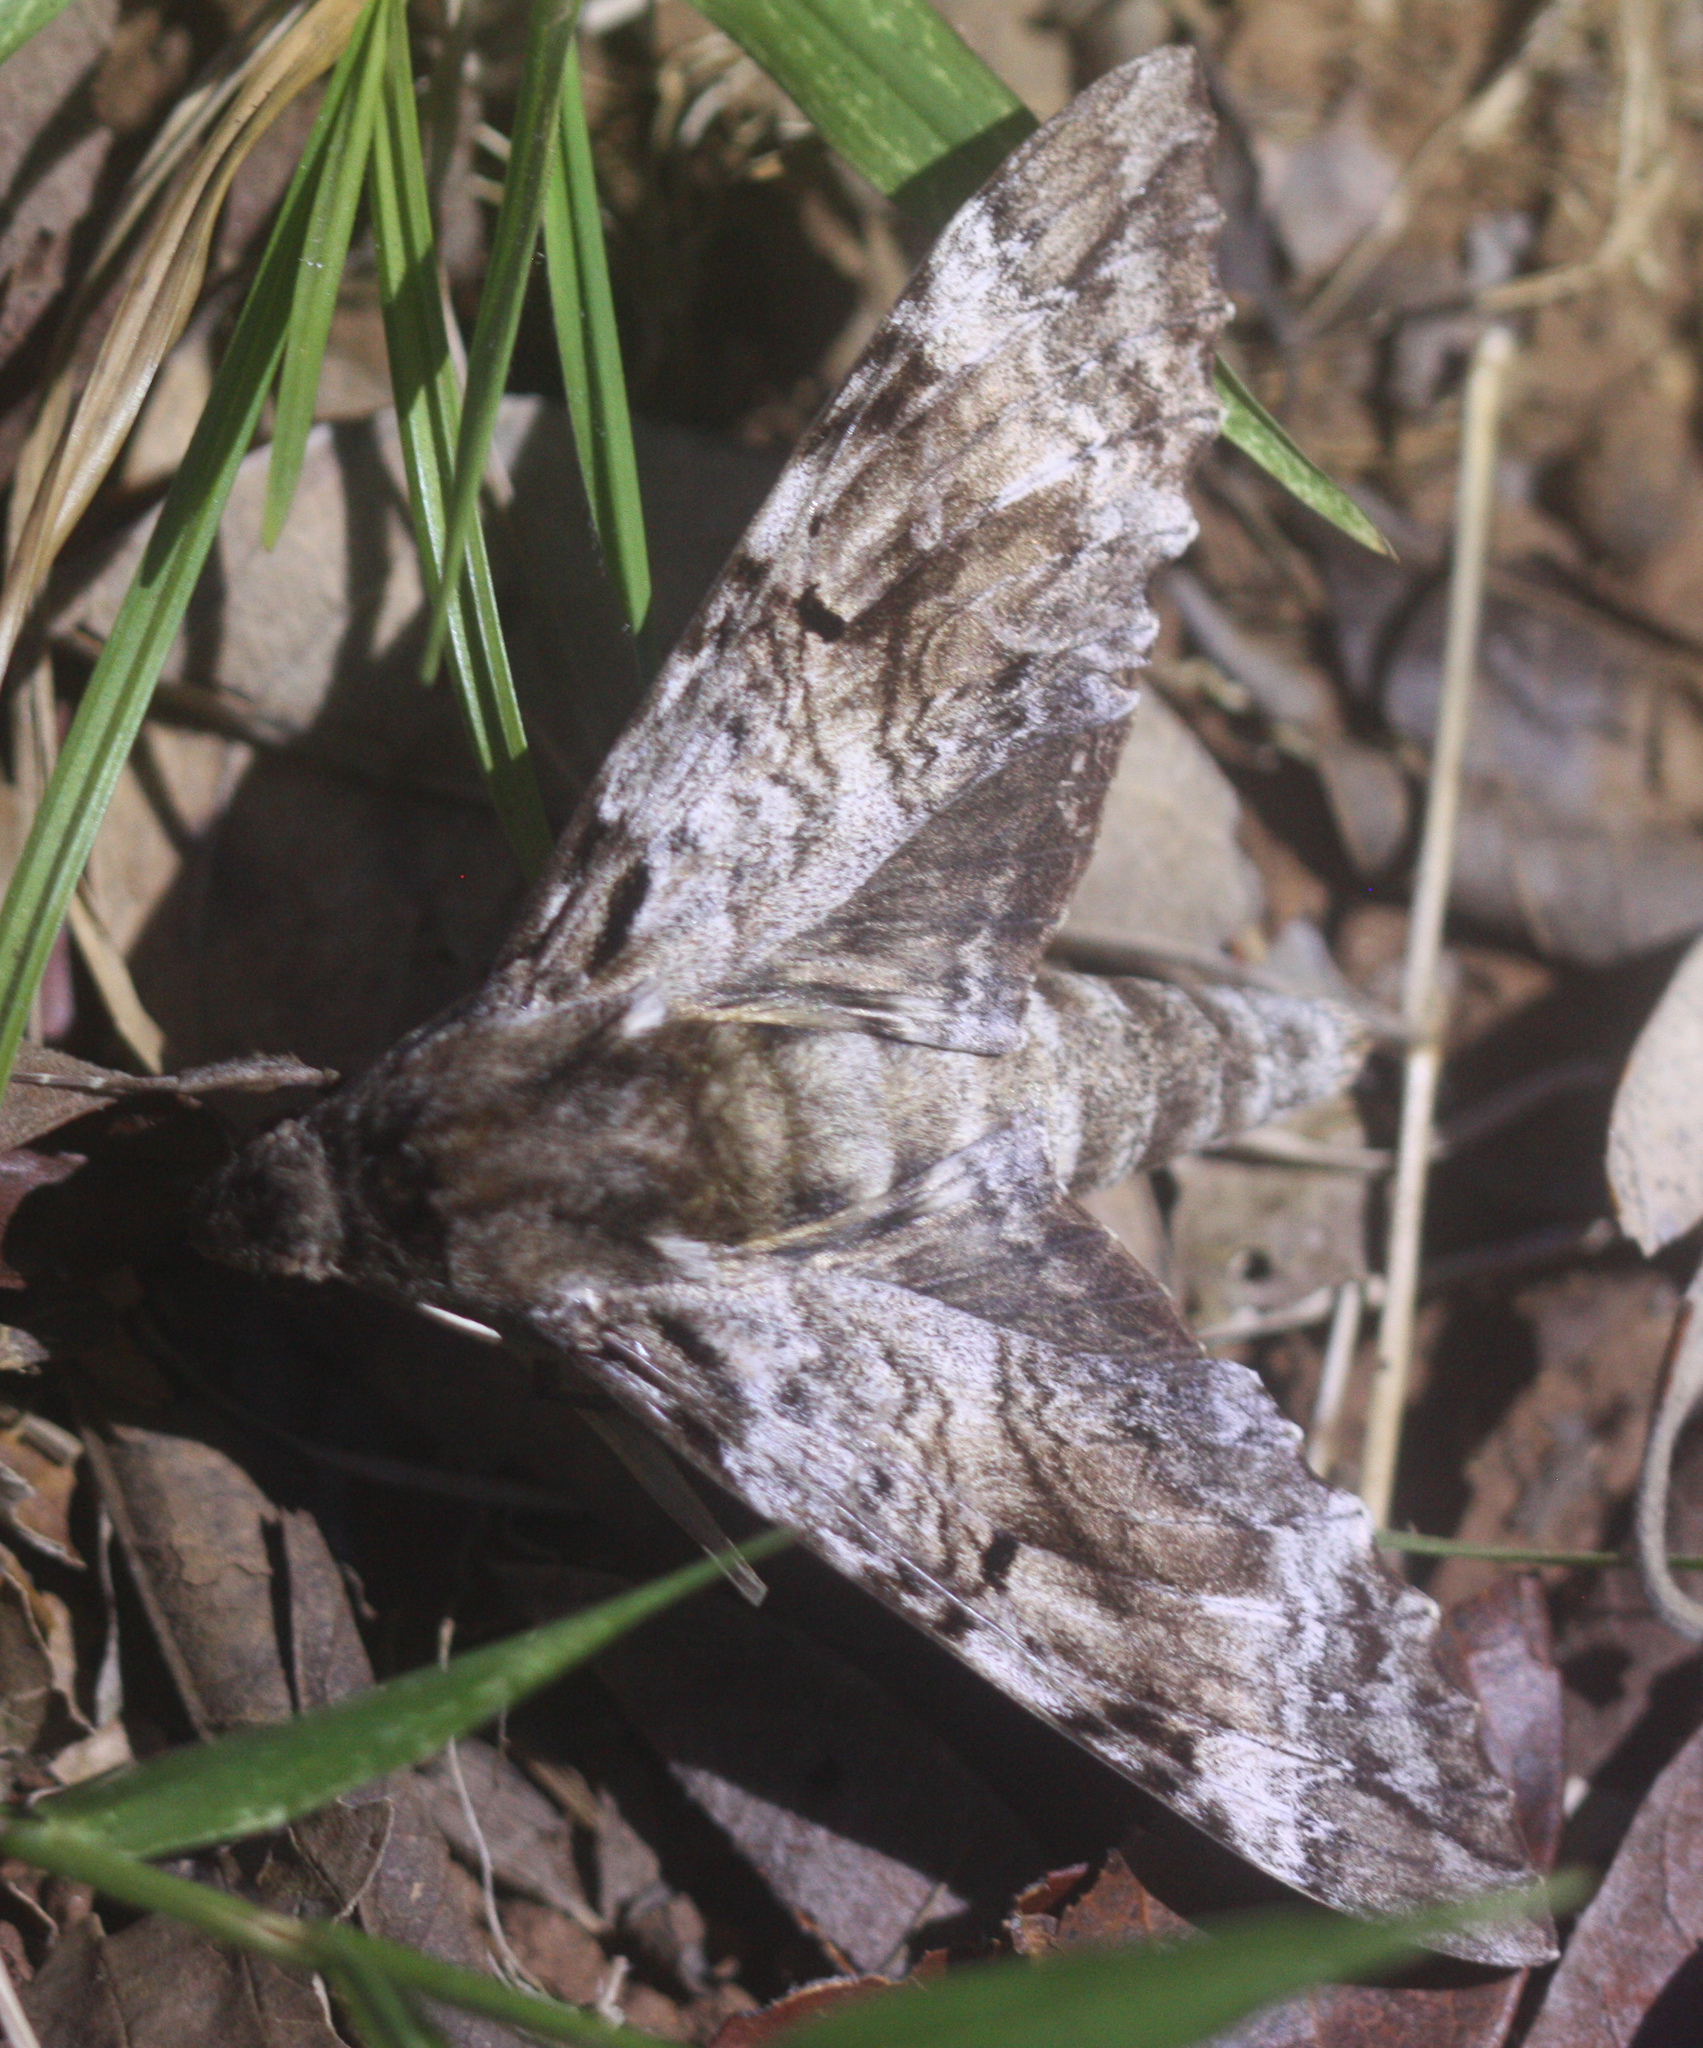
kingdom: Animalia
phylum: Arthropoda
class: Insecta
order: Lepidoptera
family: Sphingidae
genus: Pseudosphinx
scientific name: Pseudosphinx tetrio
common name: Tetrio sphinx
